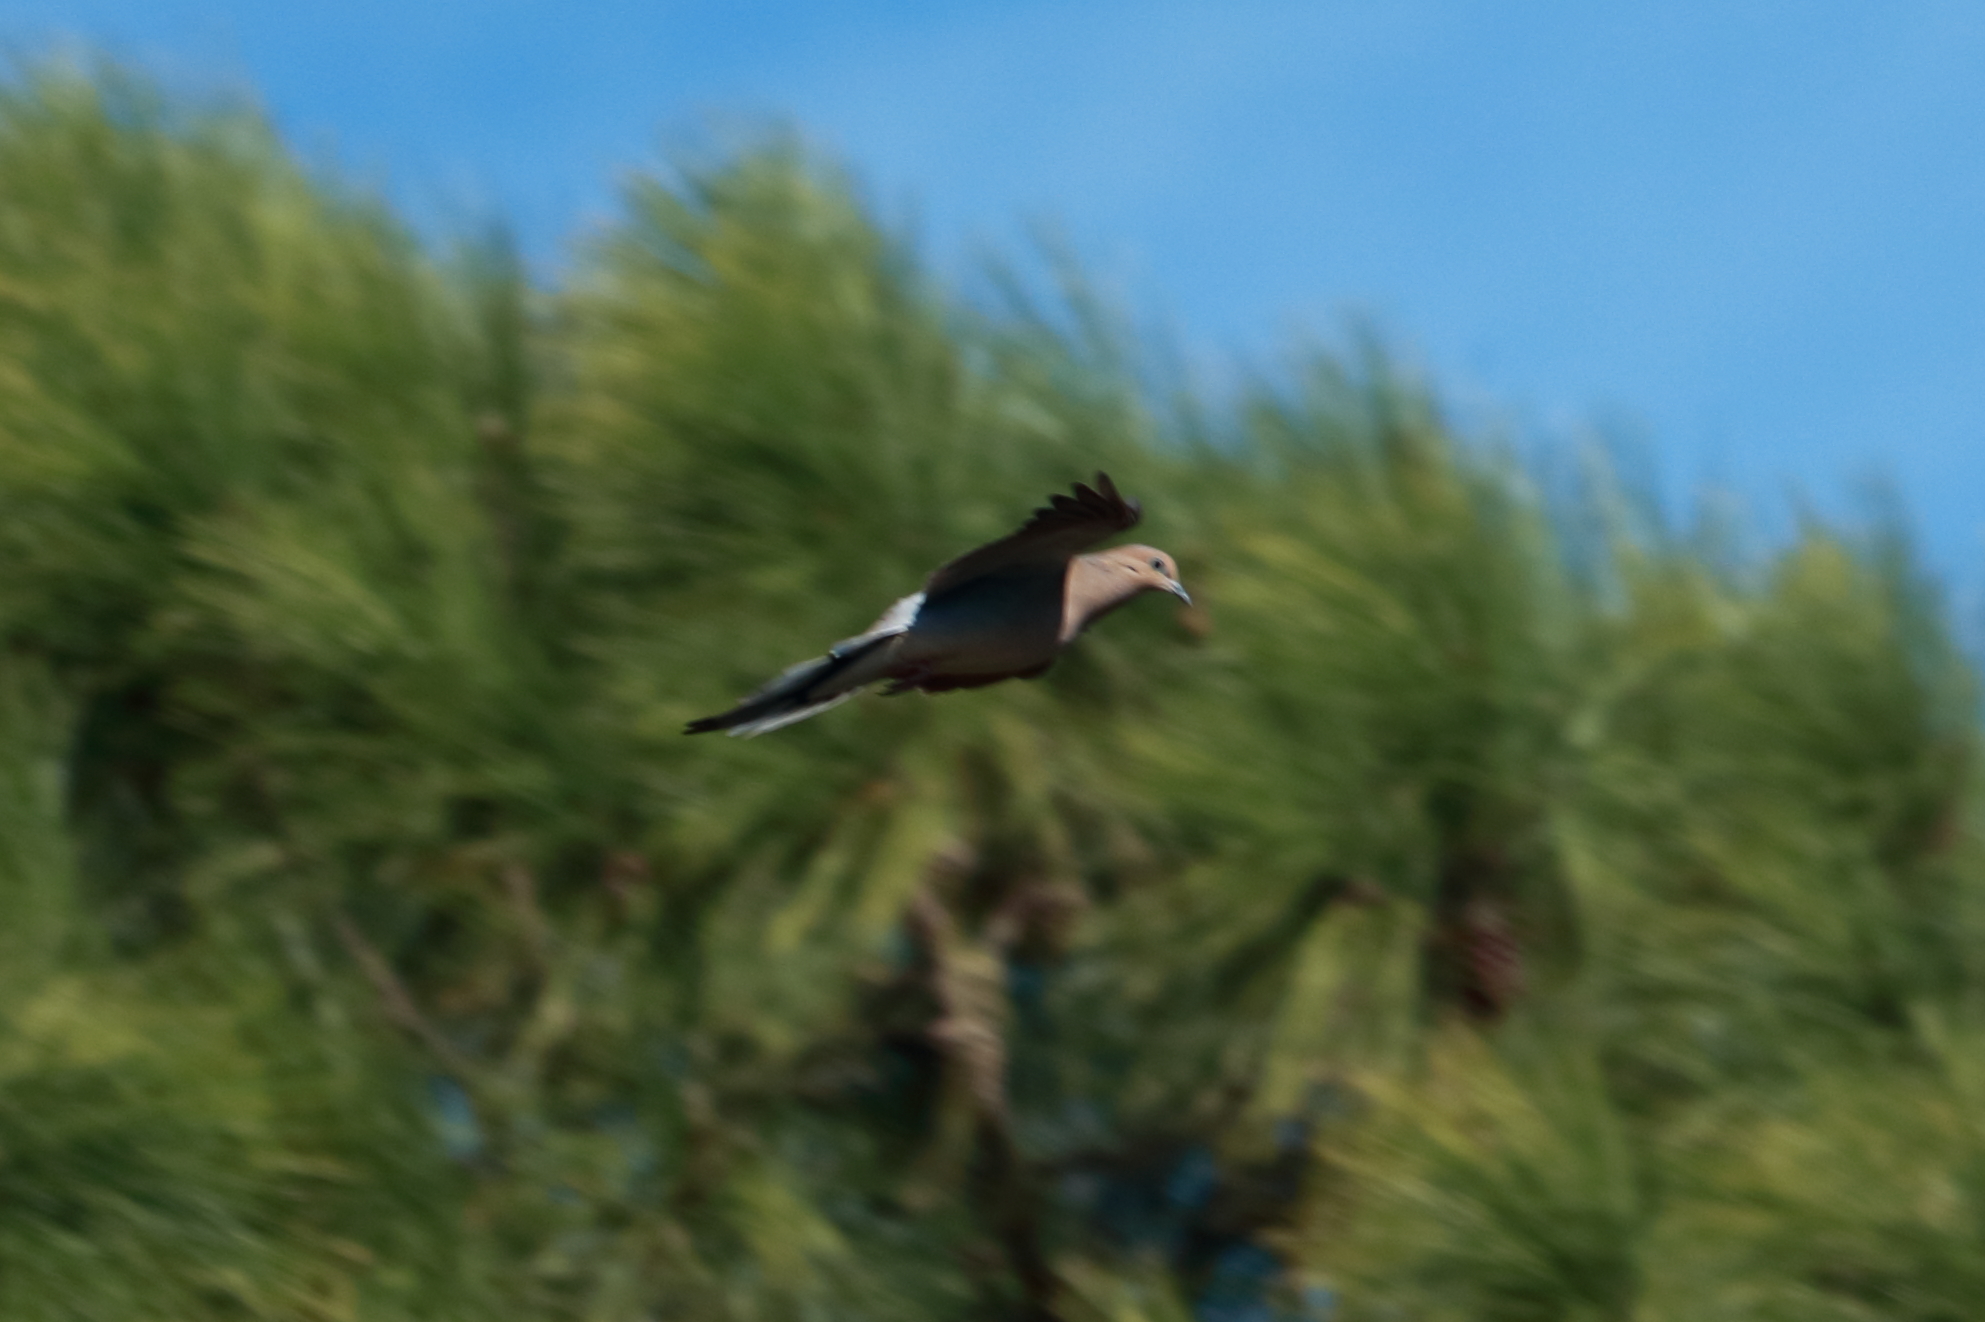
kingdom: Animalia
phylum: Chordata
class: Aves
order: Columbiformes
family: Columbidae
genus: Zenaida
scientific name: Zenaida macroura
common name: Mourning dove
